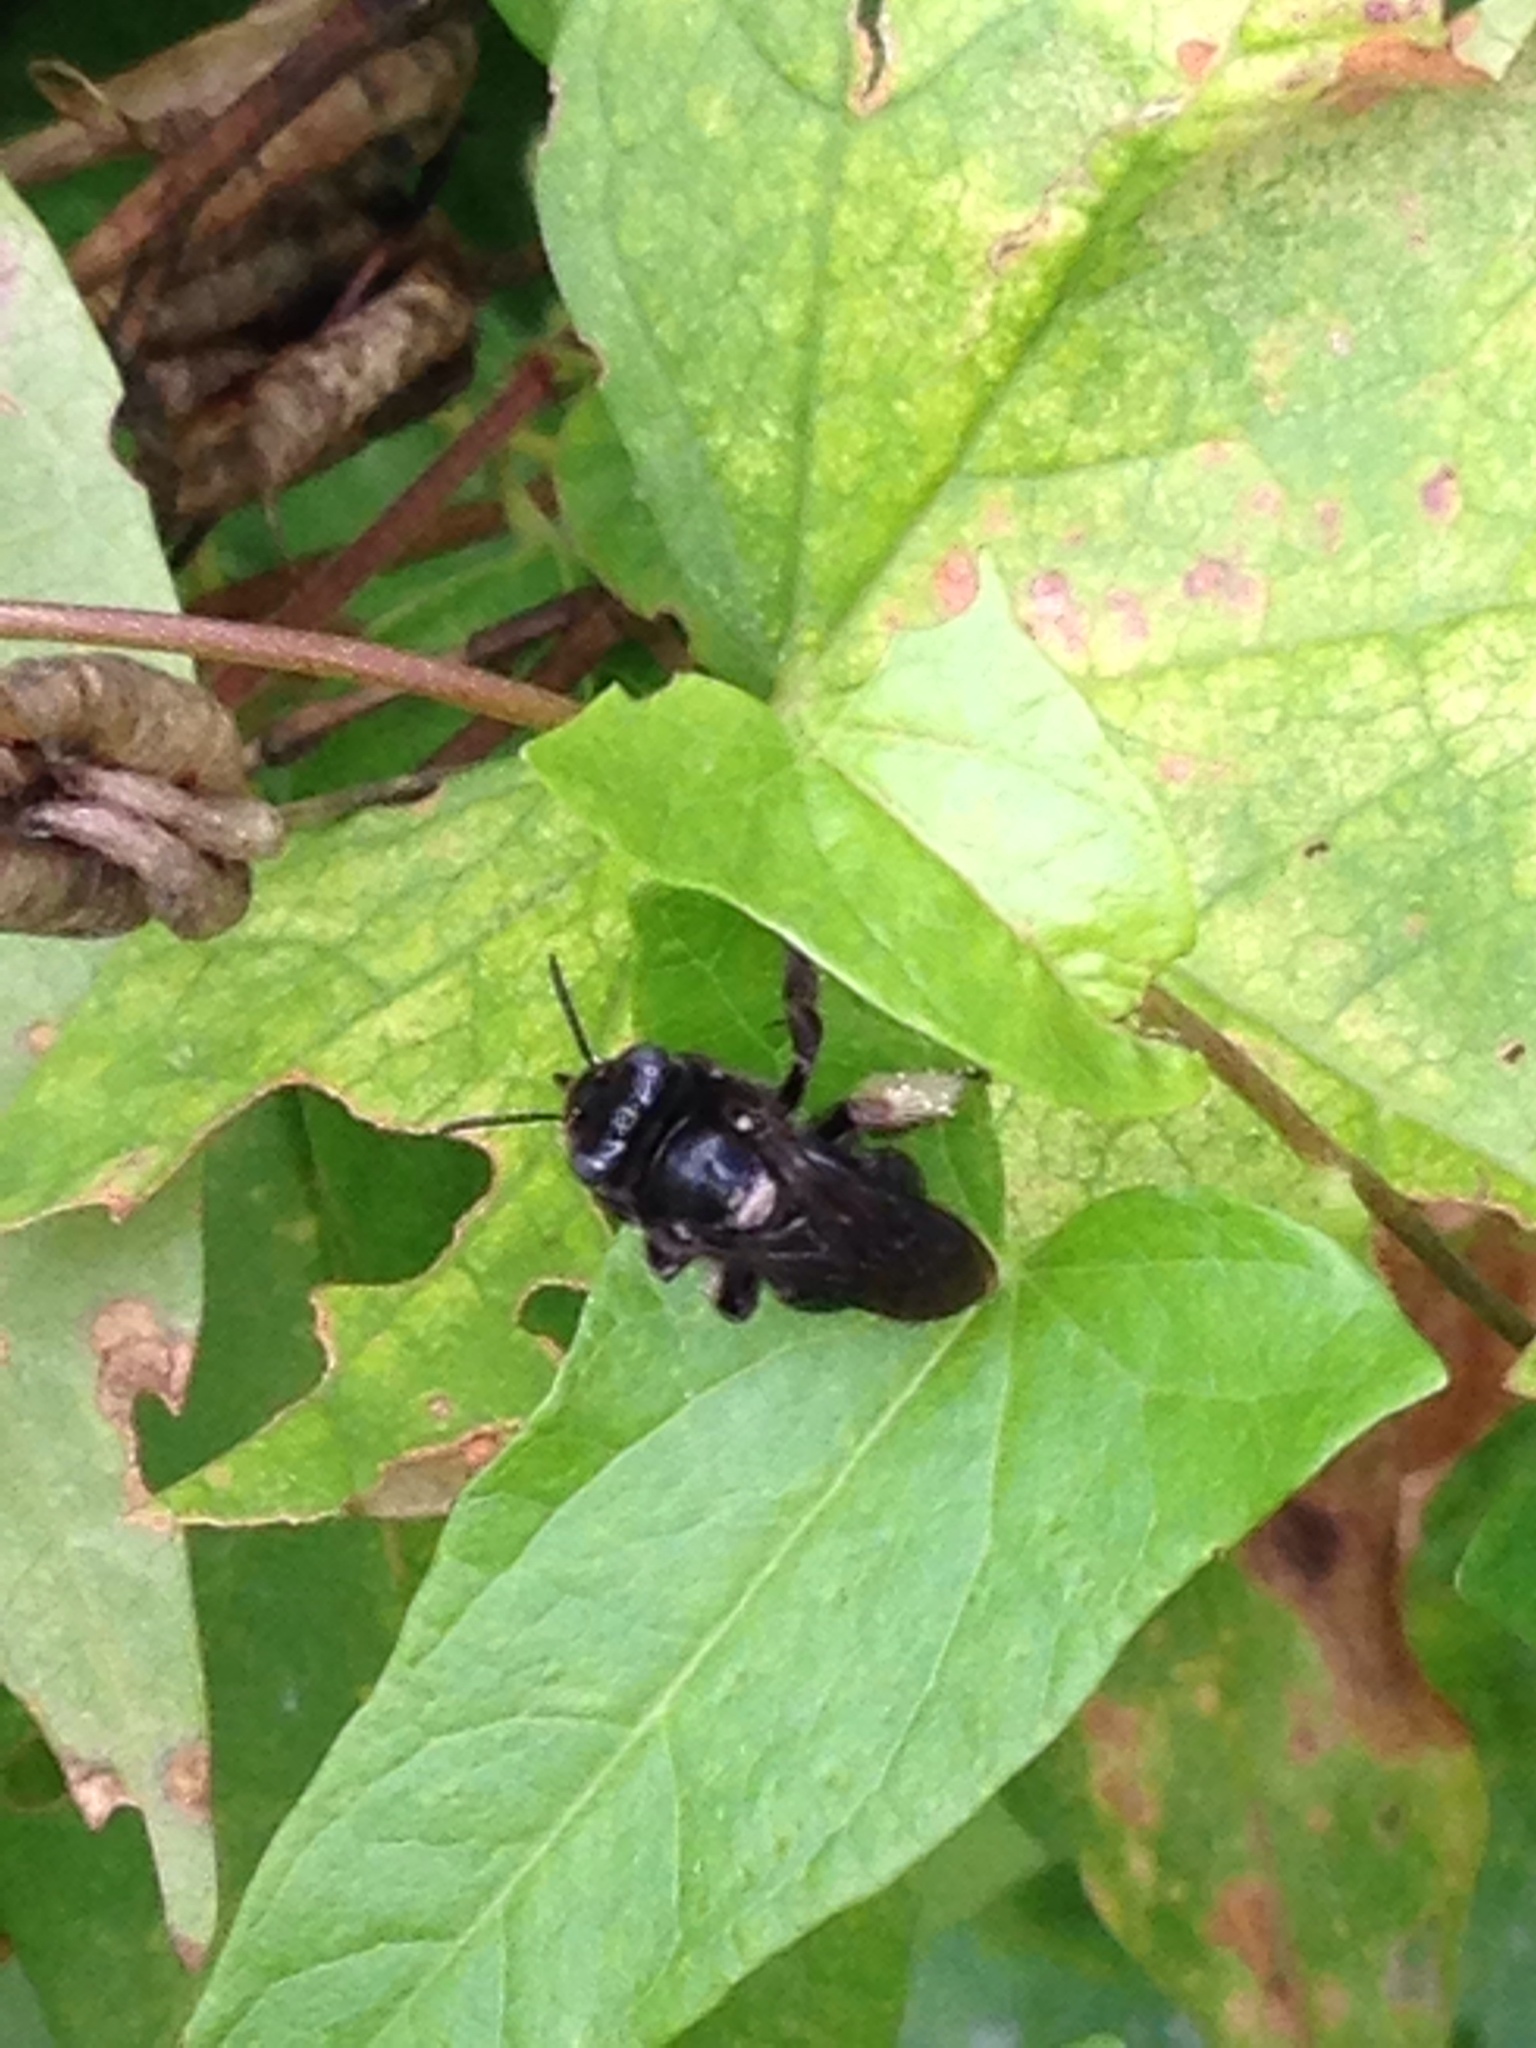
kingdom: Animalia
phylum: Arthropoda
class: Insecta
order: Hymenoptera
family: Apidae
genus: Melissodes
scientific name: Melissodes bimaculatus
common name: Two-spotted long-horned bee
